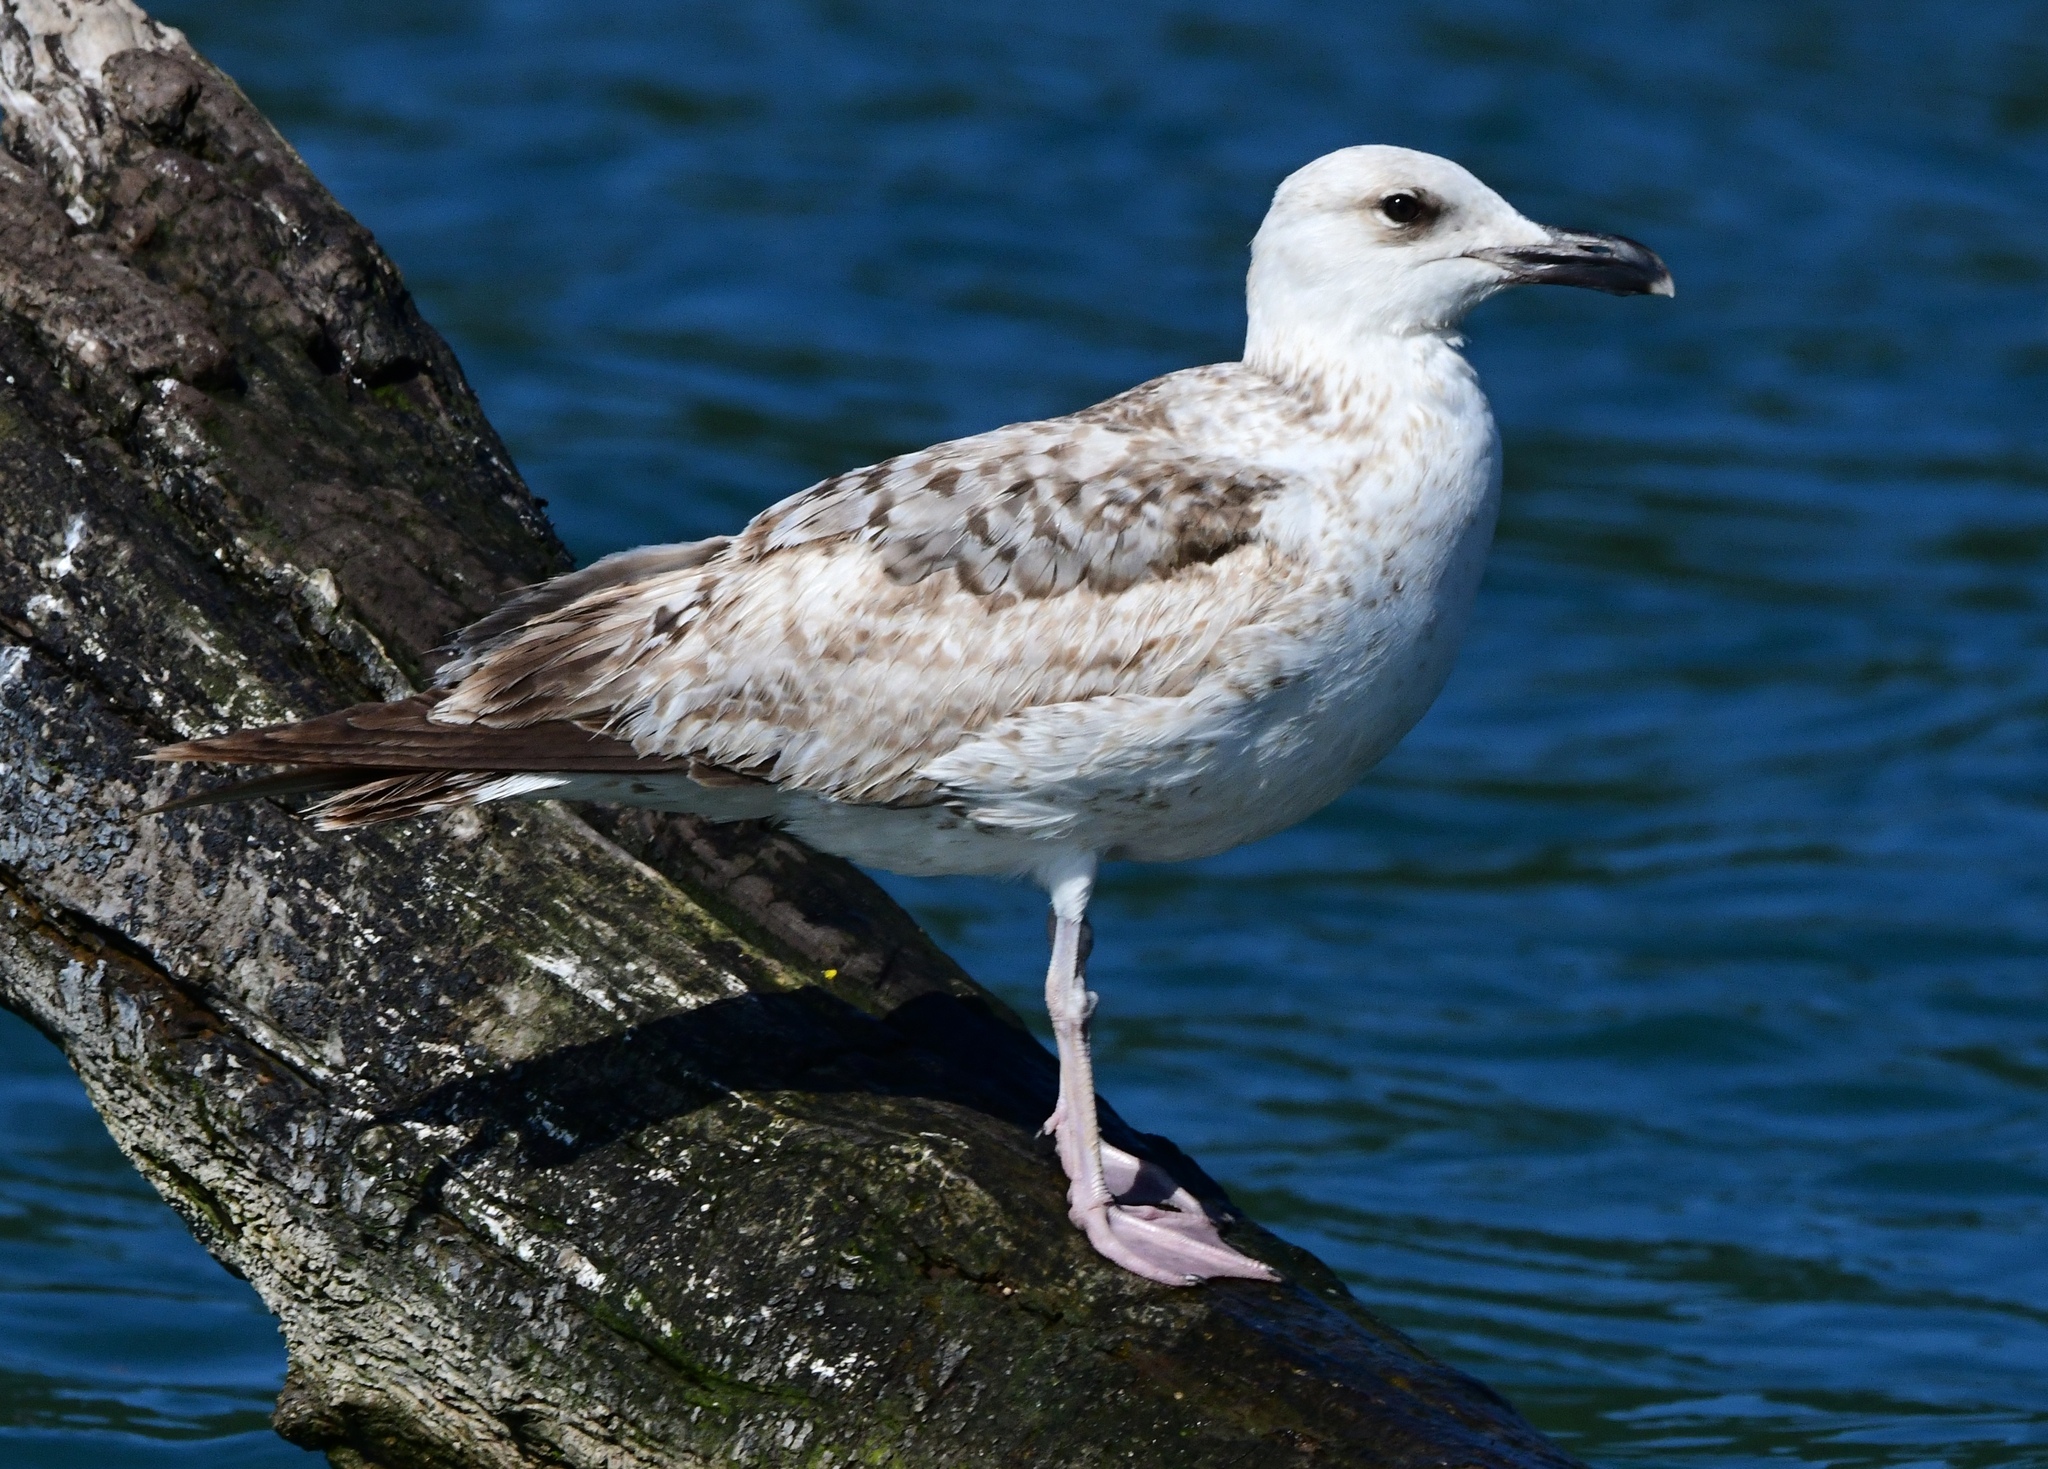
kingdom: Animalia
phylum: Chordata
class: Aves
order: Charadriiformes
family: Laridae
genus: Larus
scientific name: Larus michahellis
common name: Yellow-legged gull
